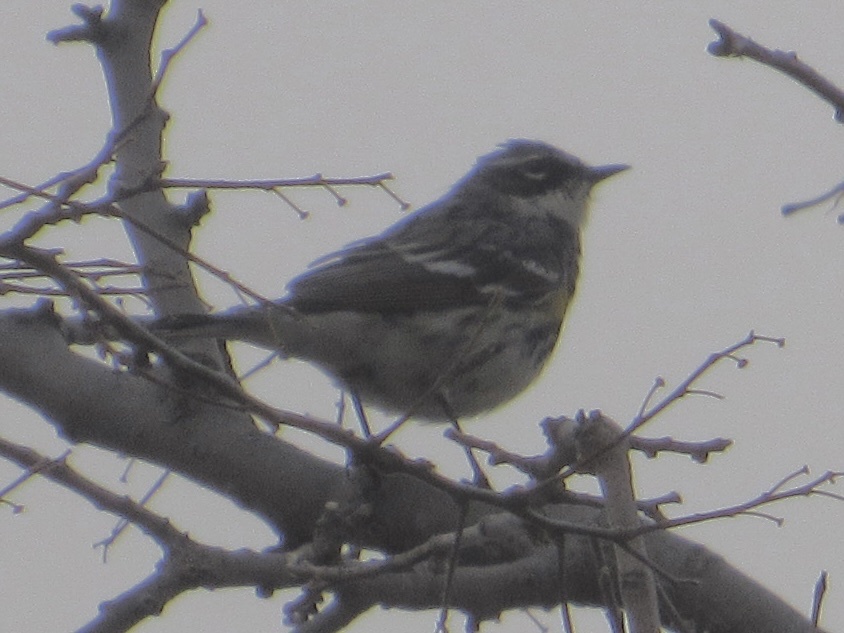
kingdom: Animalia
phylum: Chordata
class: Aves
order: Passeriformes
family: Parulidae
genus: Setophaga
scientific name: Setophaga coronata
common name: Myrtle warbler
